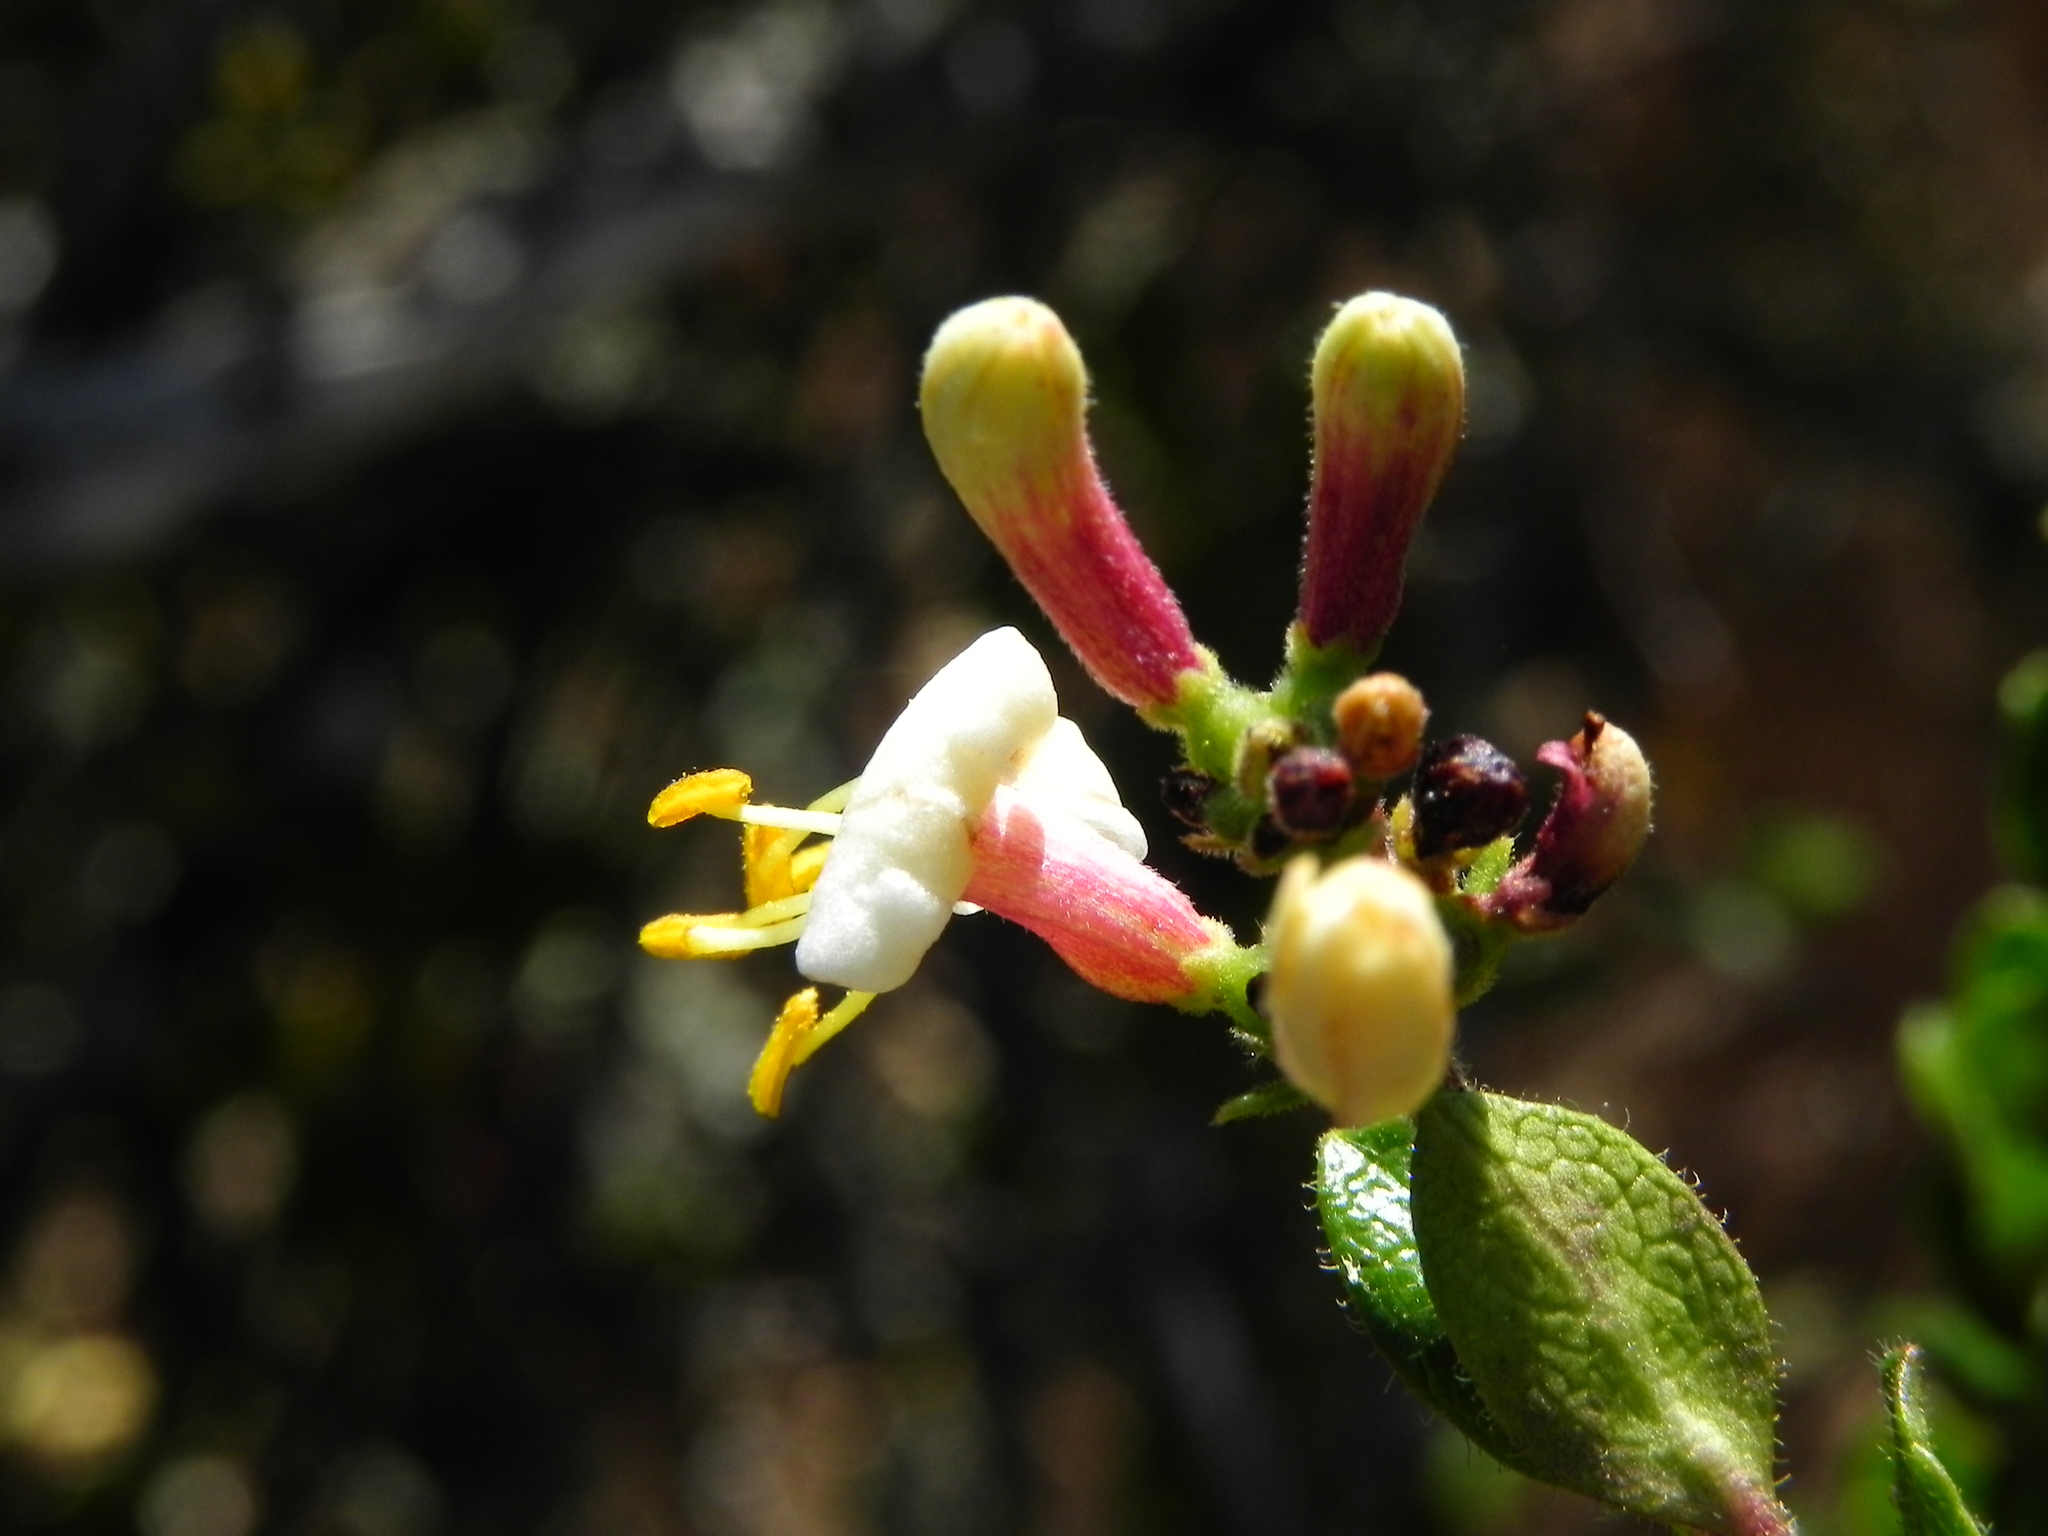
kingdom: Plantae
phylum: Tracheophyta
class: Magnoliopsida
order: Dipsacales
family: Caprifoliaceae
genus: Lonicera
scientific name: Lonicera subspicata
